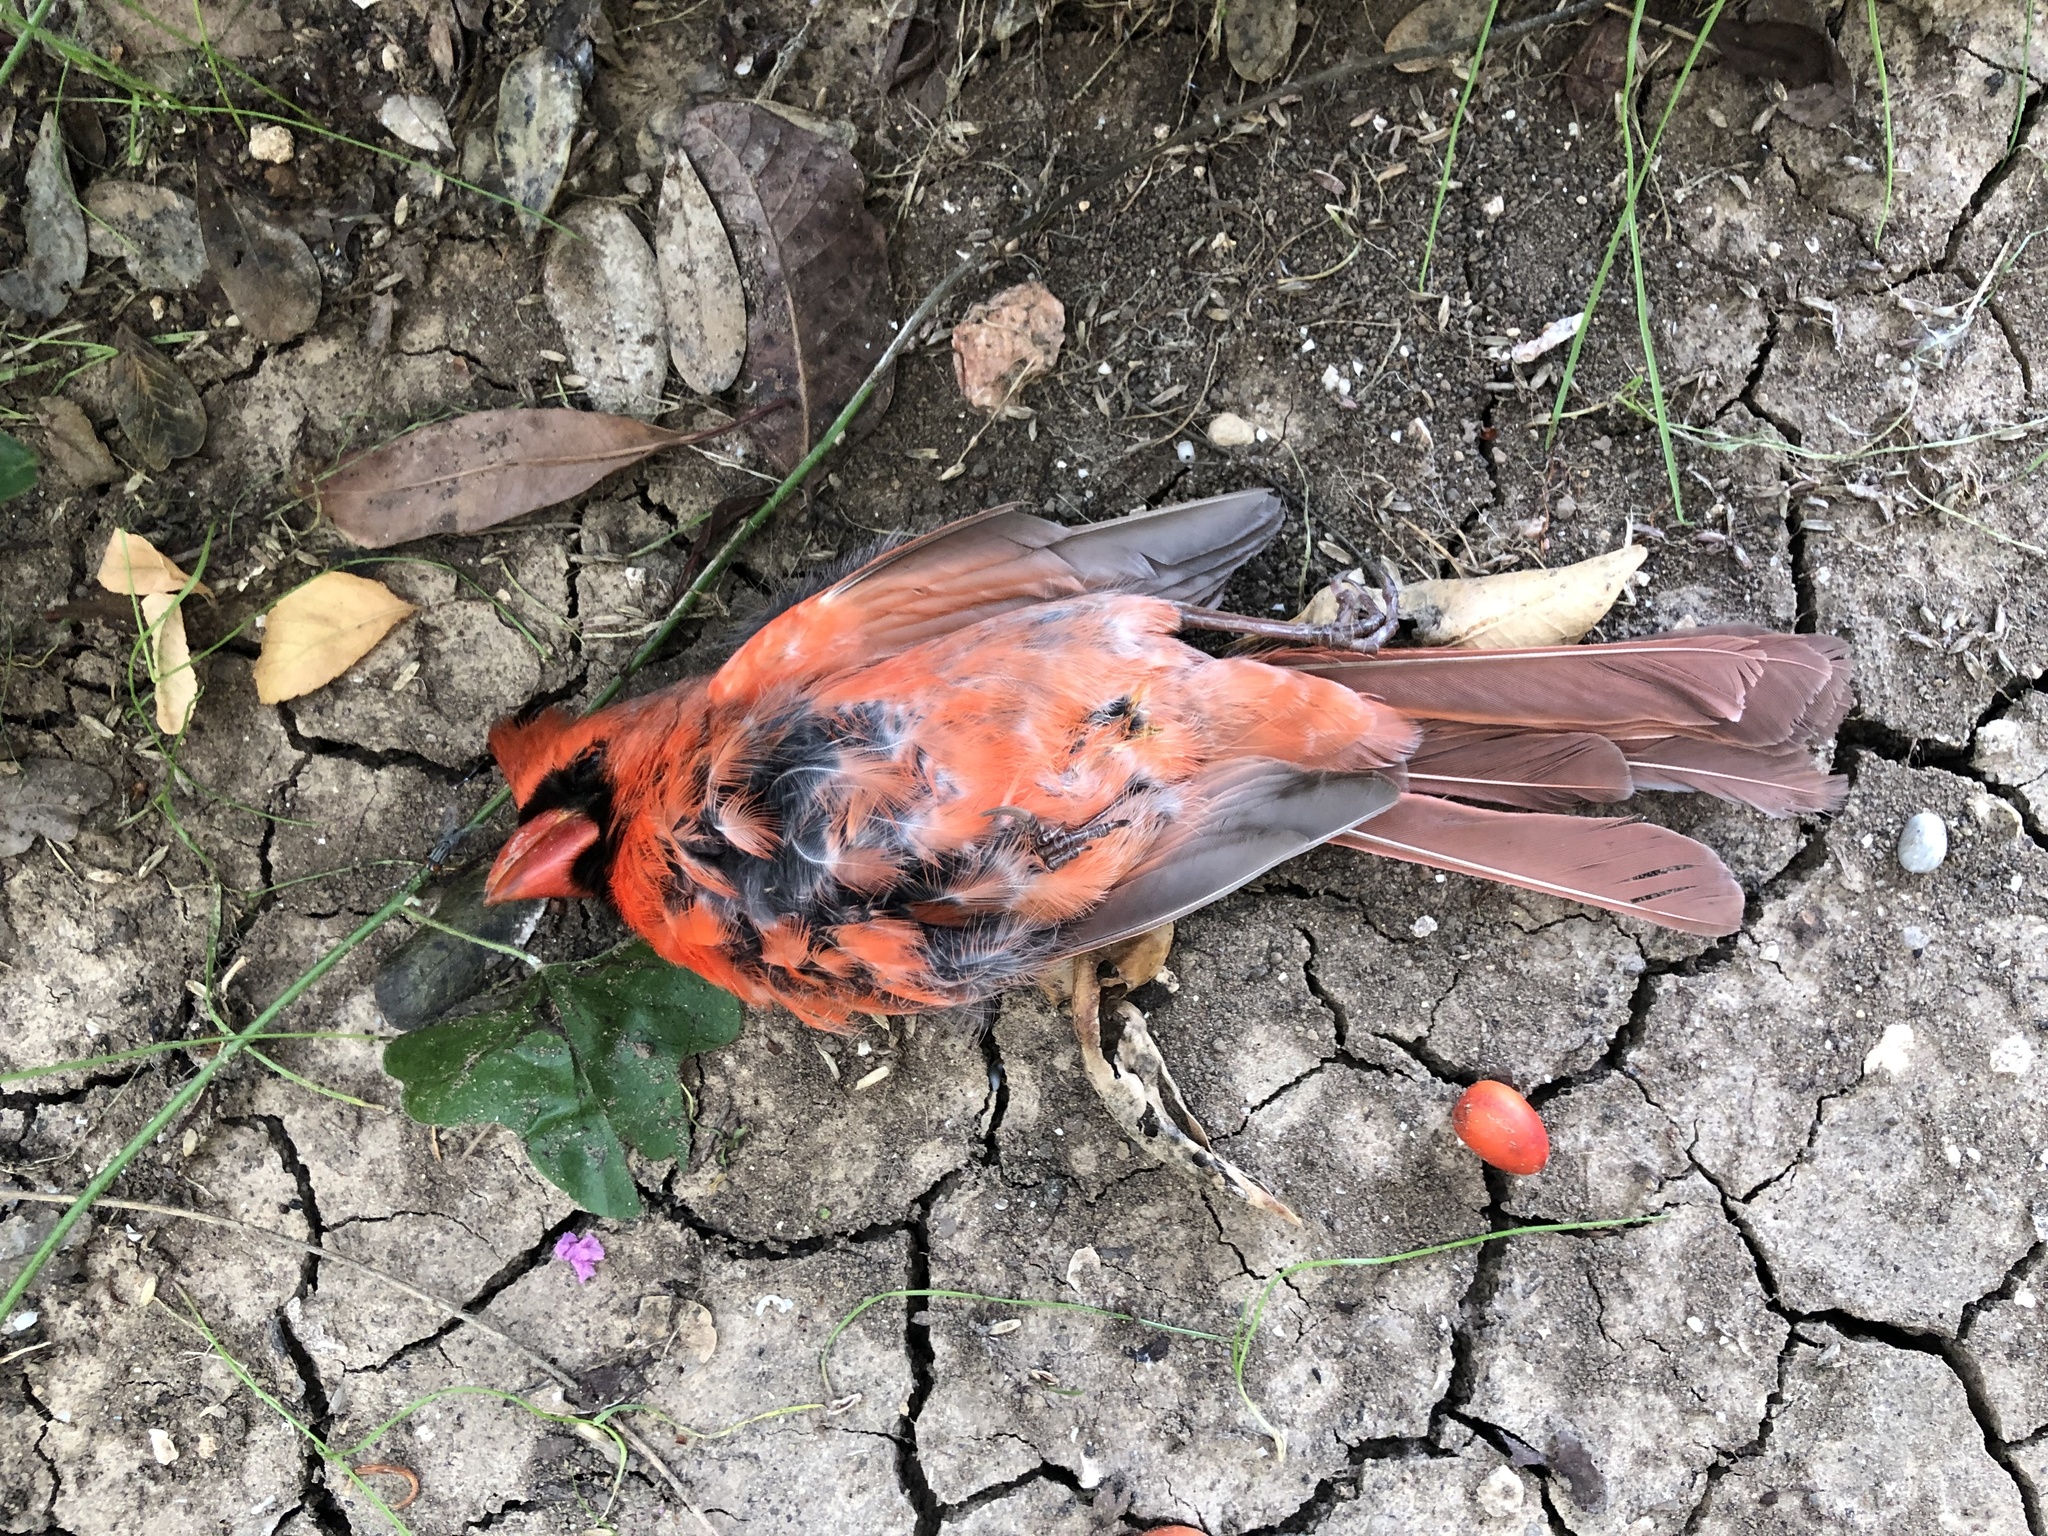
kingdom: Animalia
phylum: Chordata
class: Aves
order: Passeriformes
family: Cardinalidae
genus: Cardinalis
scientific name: Cardinalis cardinalis
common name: Northern cardinal
